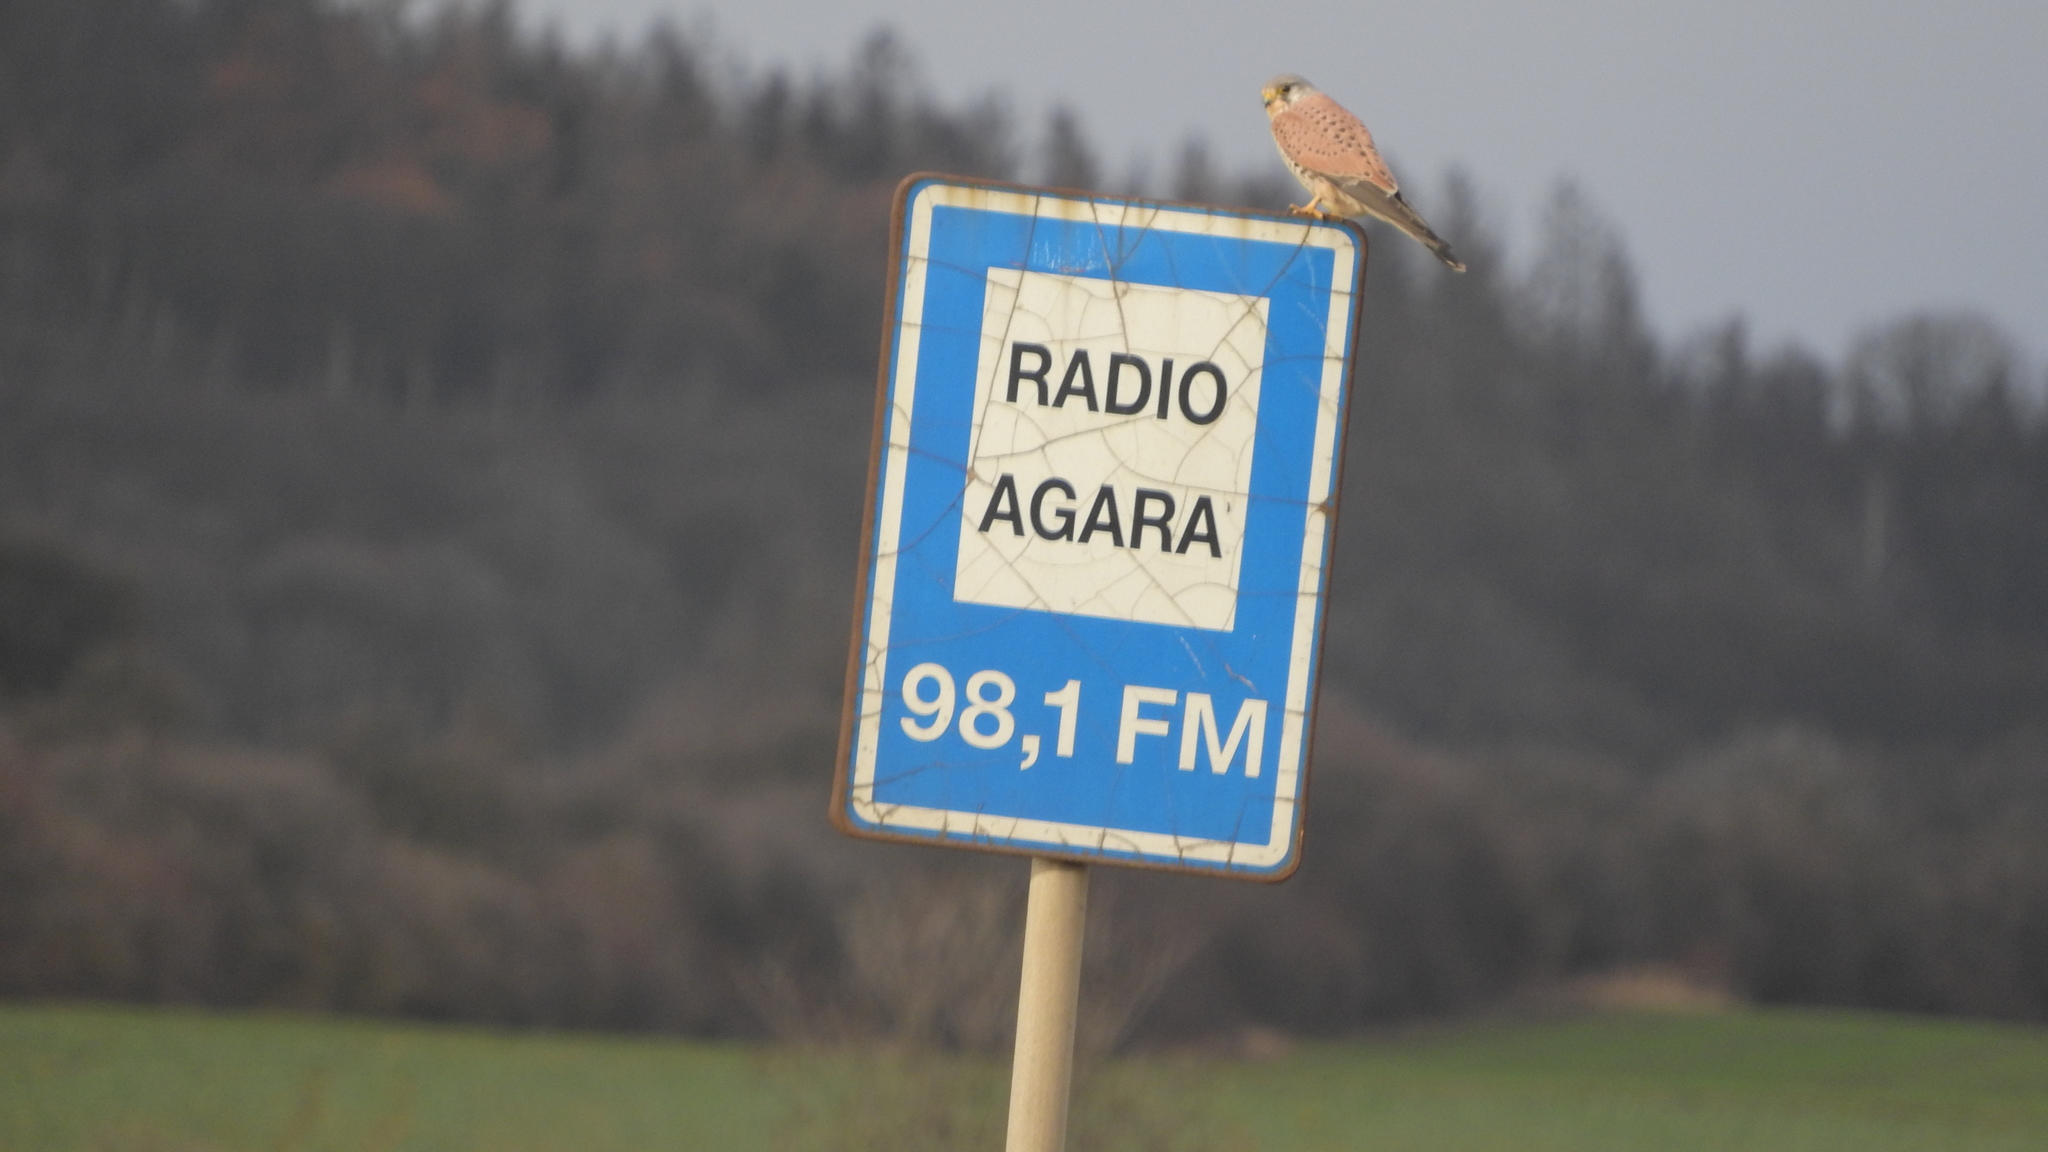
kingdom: Animalia
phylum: Chordata
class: Aves
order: Falconiformes
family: Falconidae
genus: Falco
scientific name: Falco tinnunculus
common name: Common kestrel
